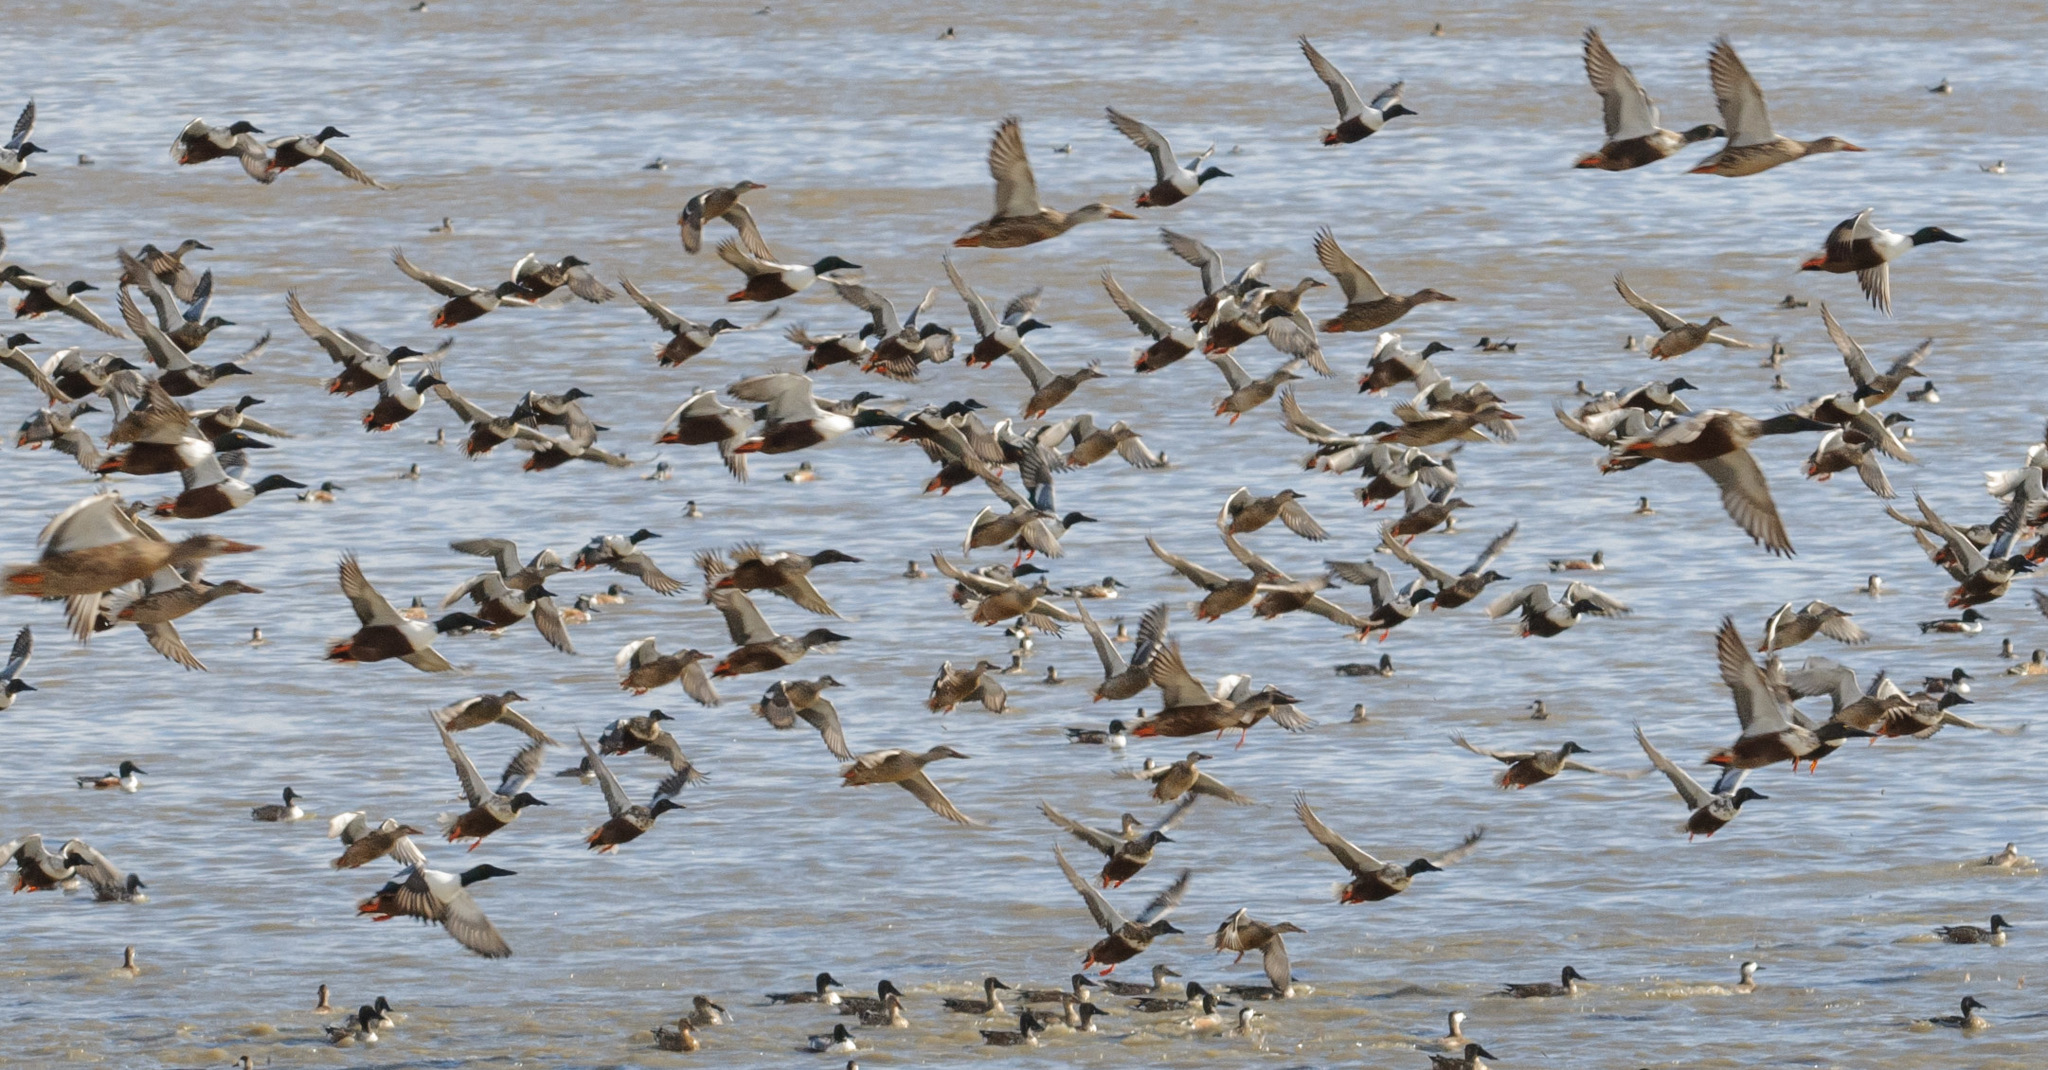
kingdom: Animalia
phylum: Chordata
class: Aves
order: Anseriformes
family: Anatidae
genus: Spatula
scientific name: Spatula clypeata
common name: Northern shoveler
